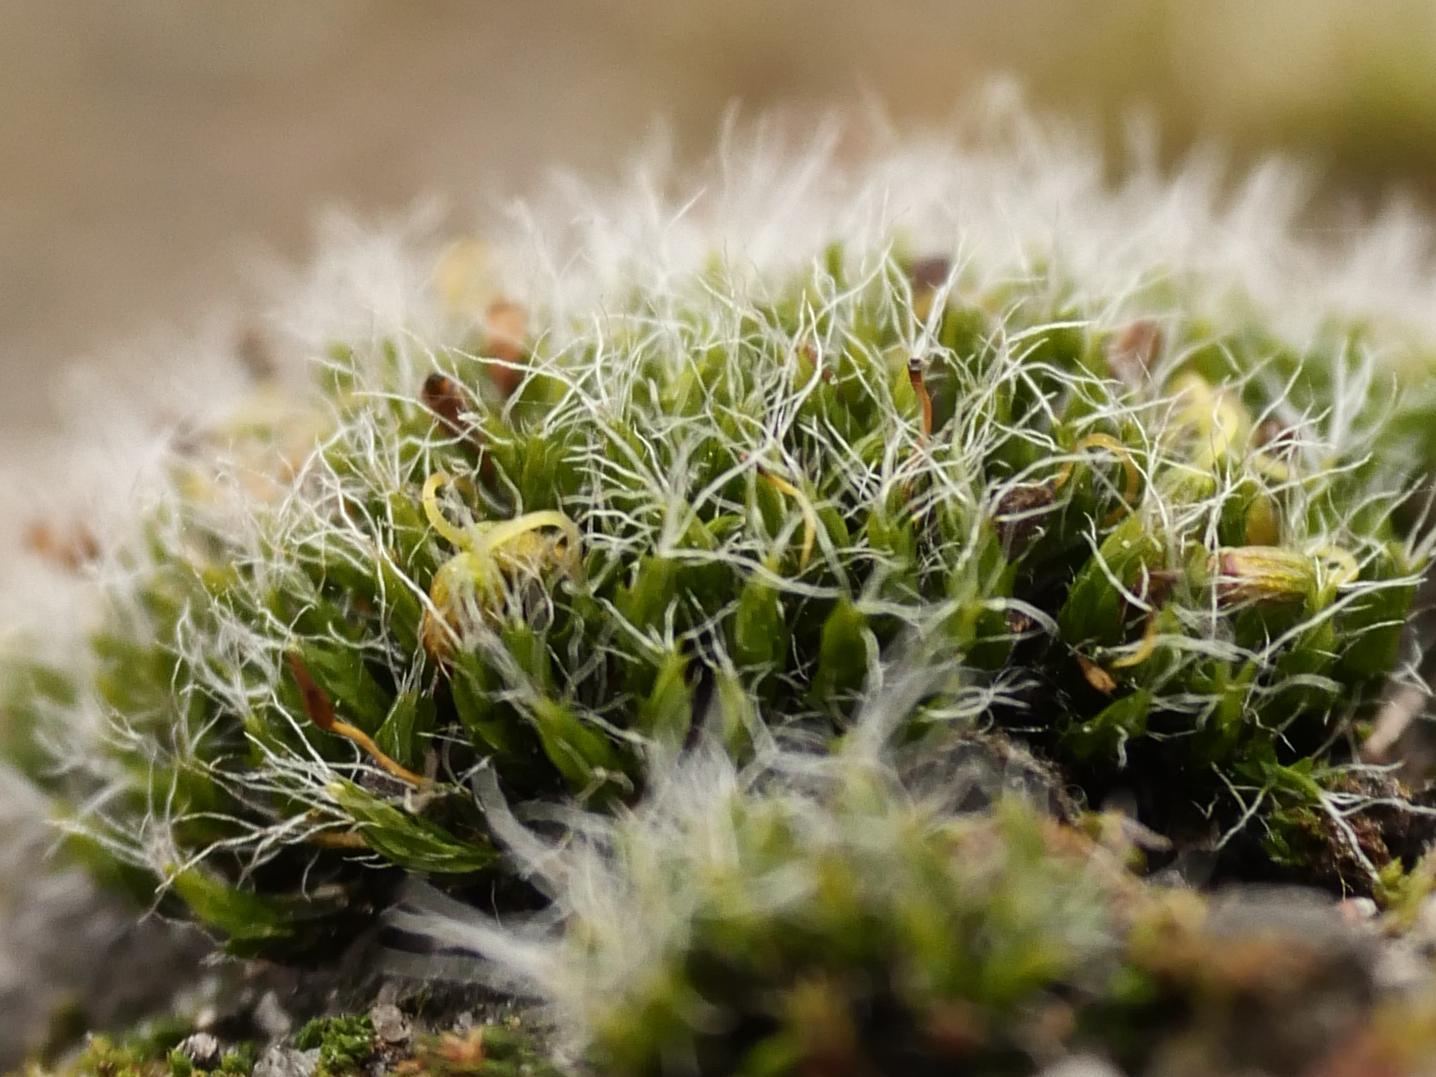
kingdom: Plantae
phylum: Bryophyta
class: Bryopsida
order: Grimmiales
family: Grimmiaceae
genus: Grimmia
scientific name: Grimmia pulvinata
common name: Grey-cushioned grimmia
